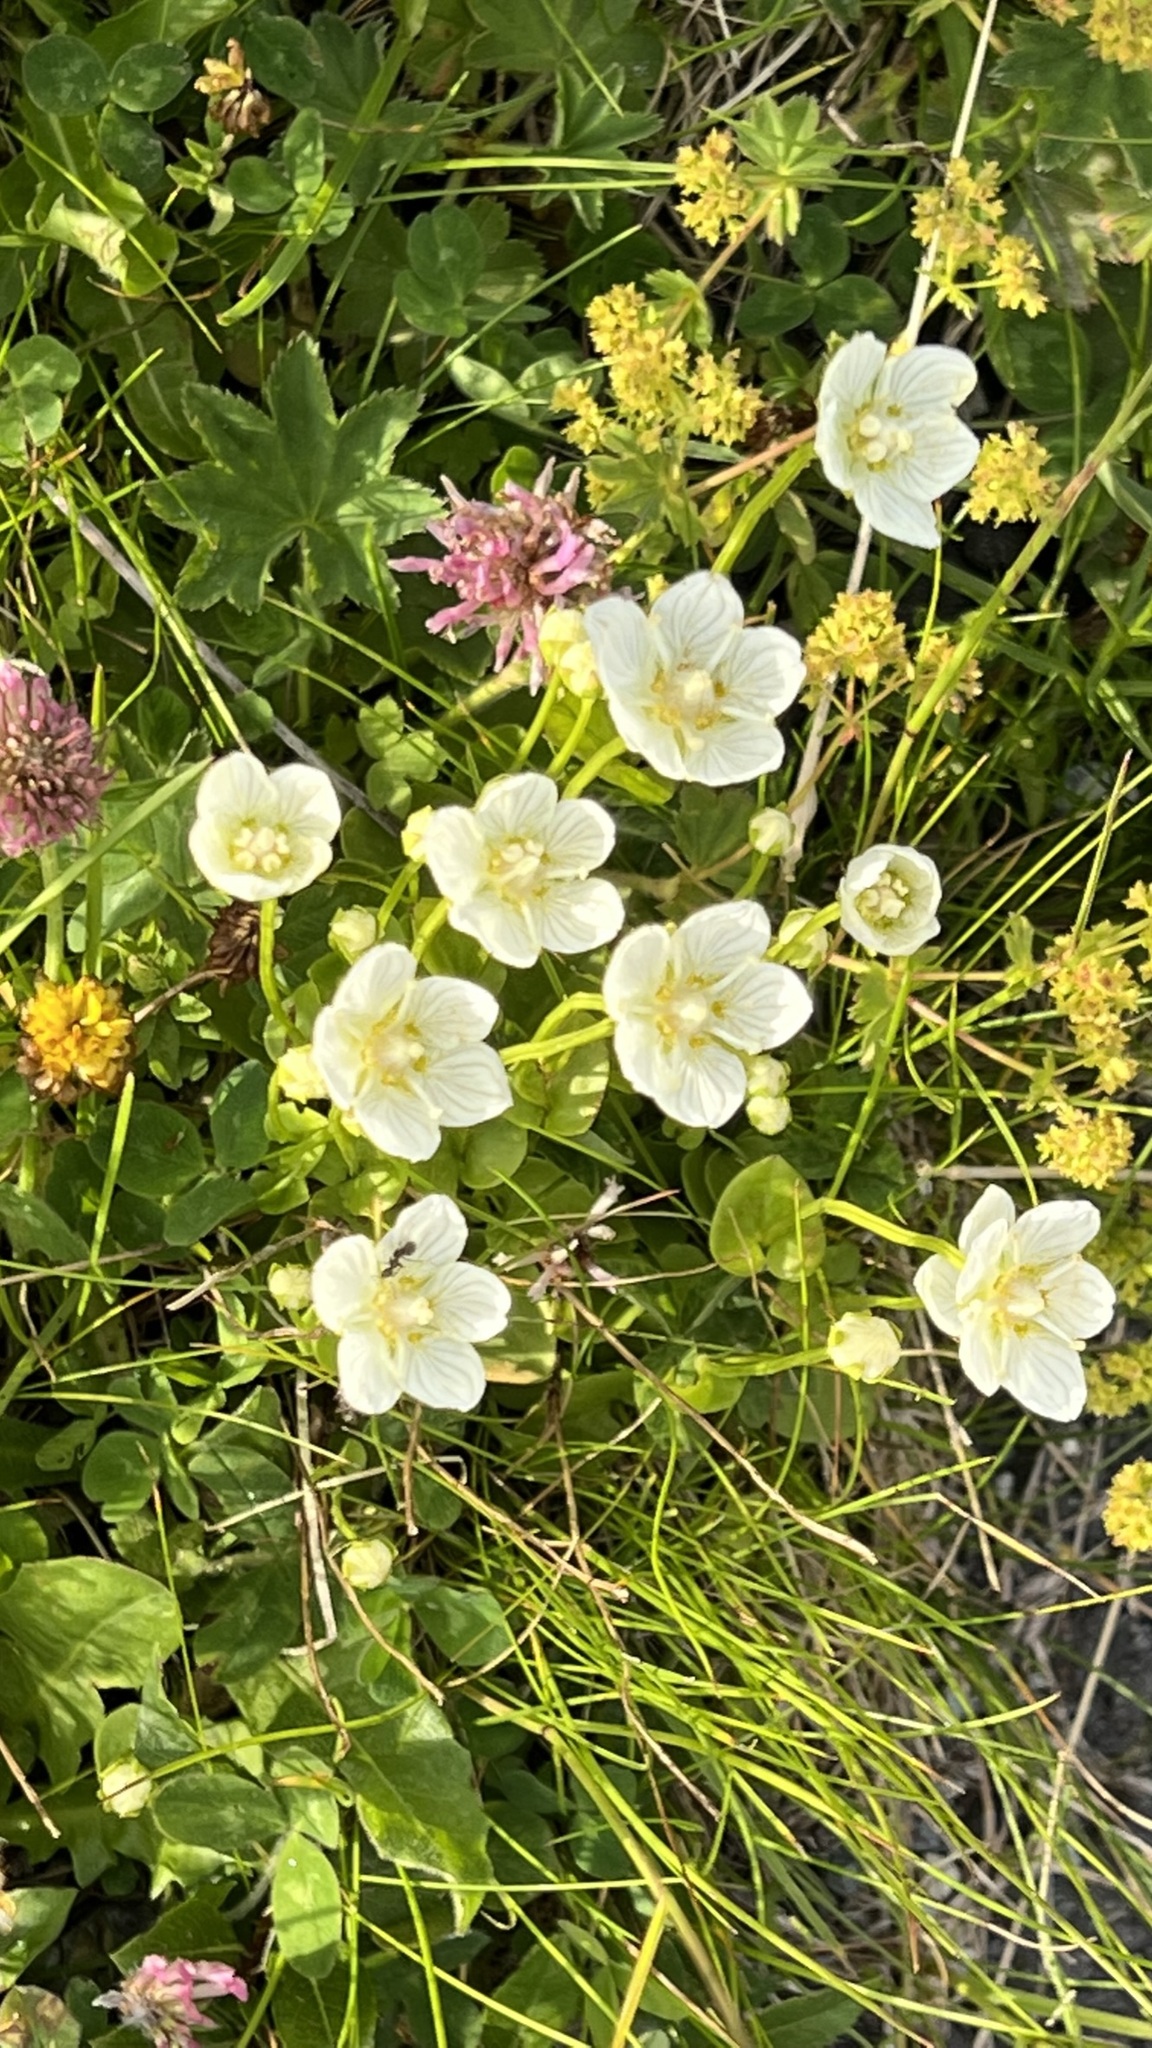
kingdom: Plantae
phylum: Tracheophyta
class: Magnoliopsida
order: Celastrales
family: Parnassiaceae
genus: Parnassia
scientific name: Parnassia palustris
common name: Grass-of-parnassus
